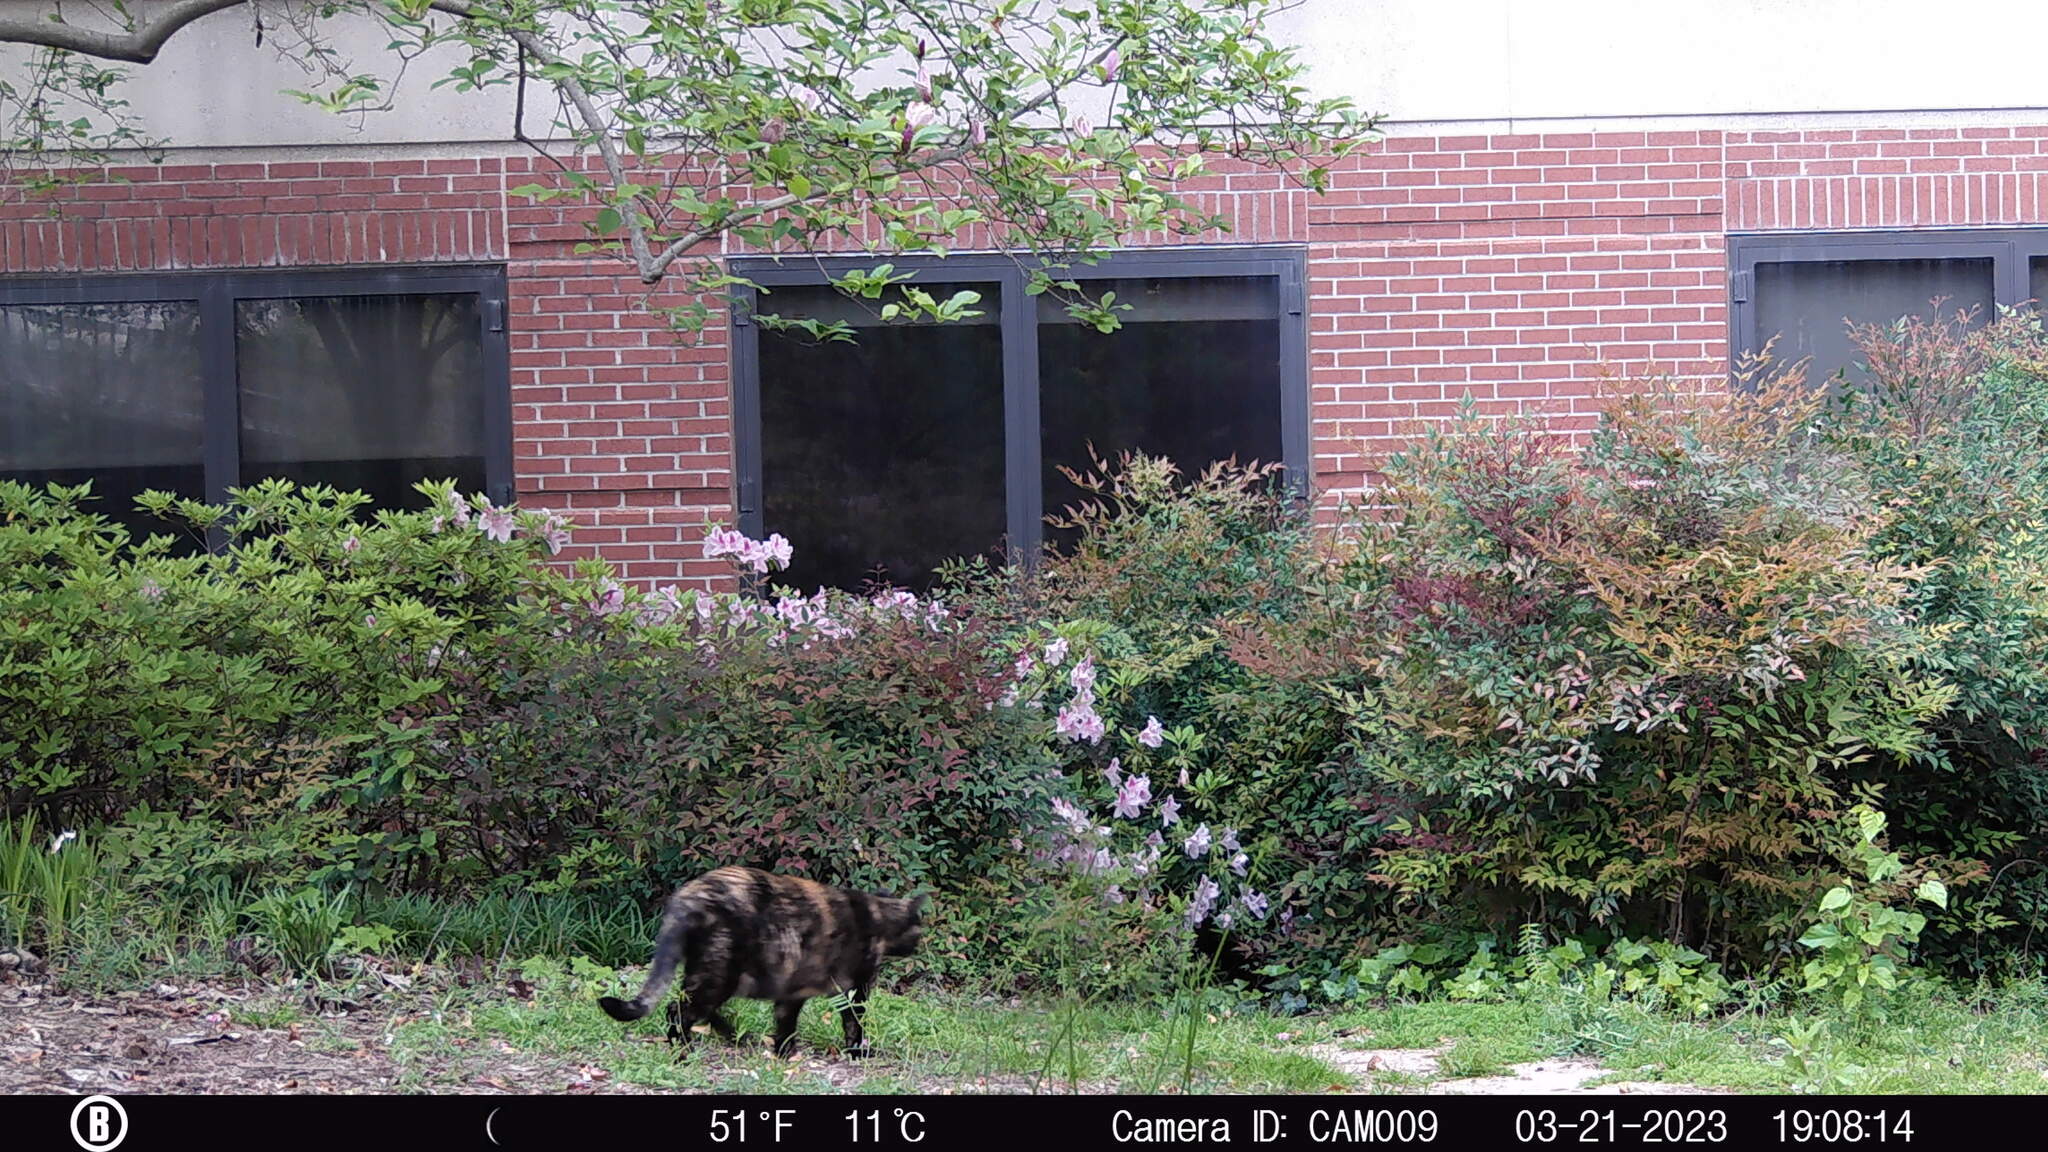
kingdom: Animalia
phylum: Chordata
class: Mammalia
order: Carnivora
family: Felidae
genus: Felis
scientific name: Felis catus
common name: Domestic cat
